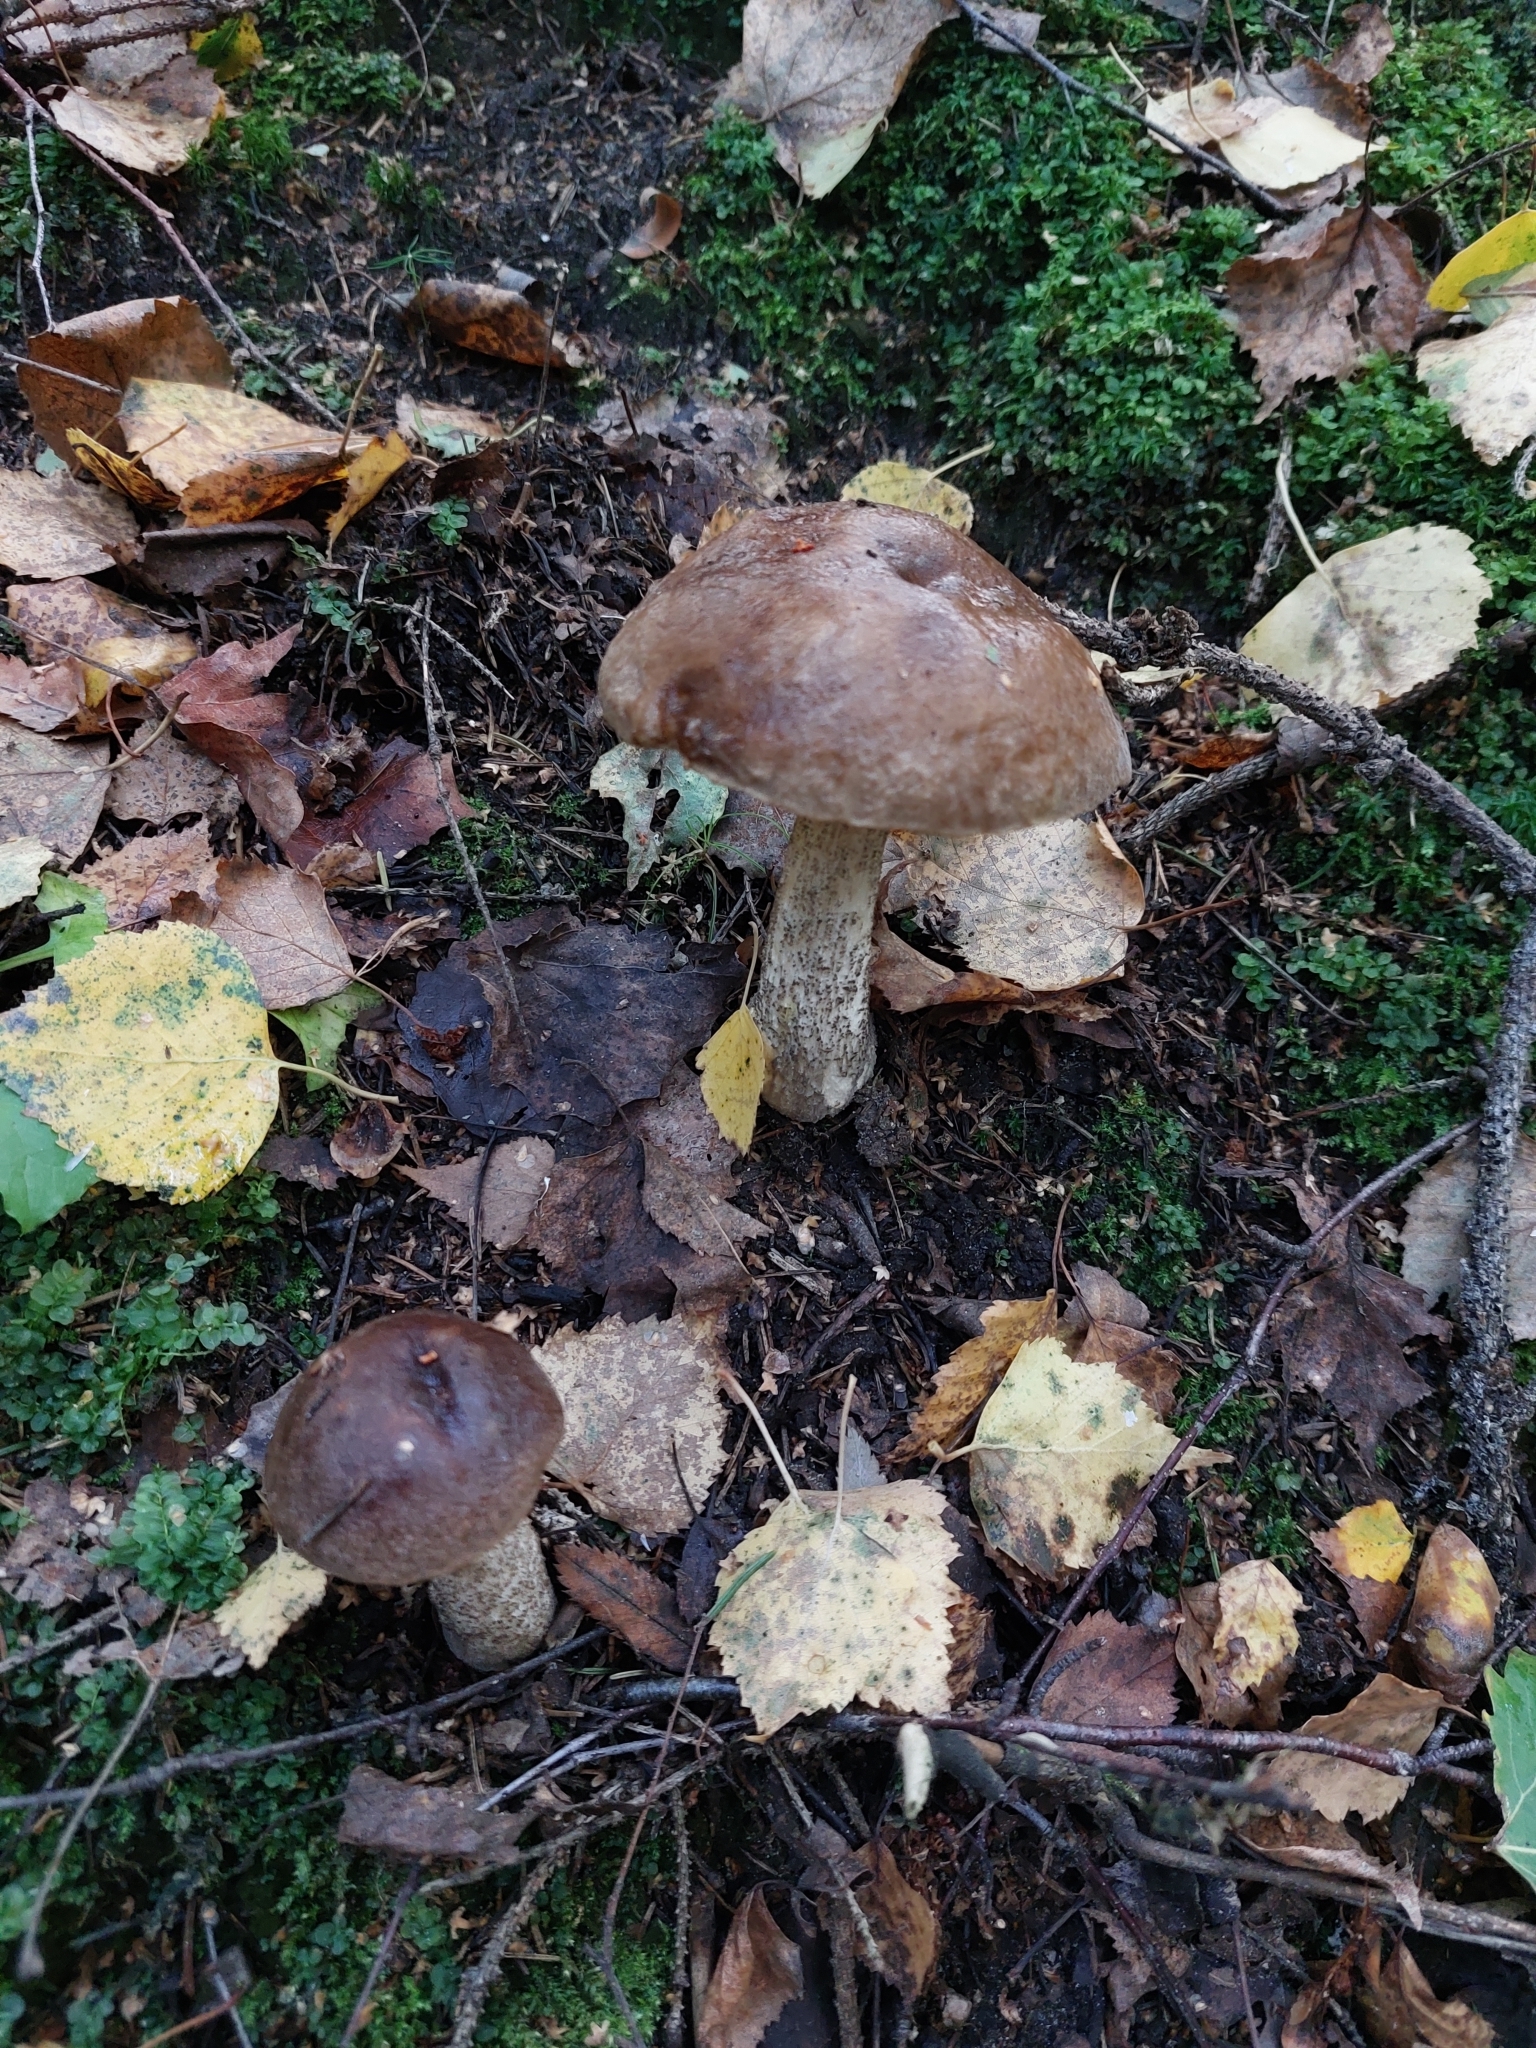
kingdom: Fungi
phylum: Basidiomycota
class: Agaricomycetes
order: Boletales
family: Boletaceae
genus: Leccinum
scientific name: Leccinum scabrum
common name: Blushing bolete
